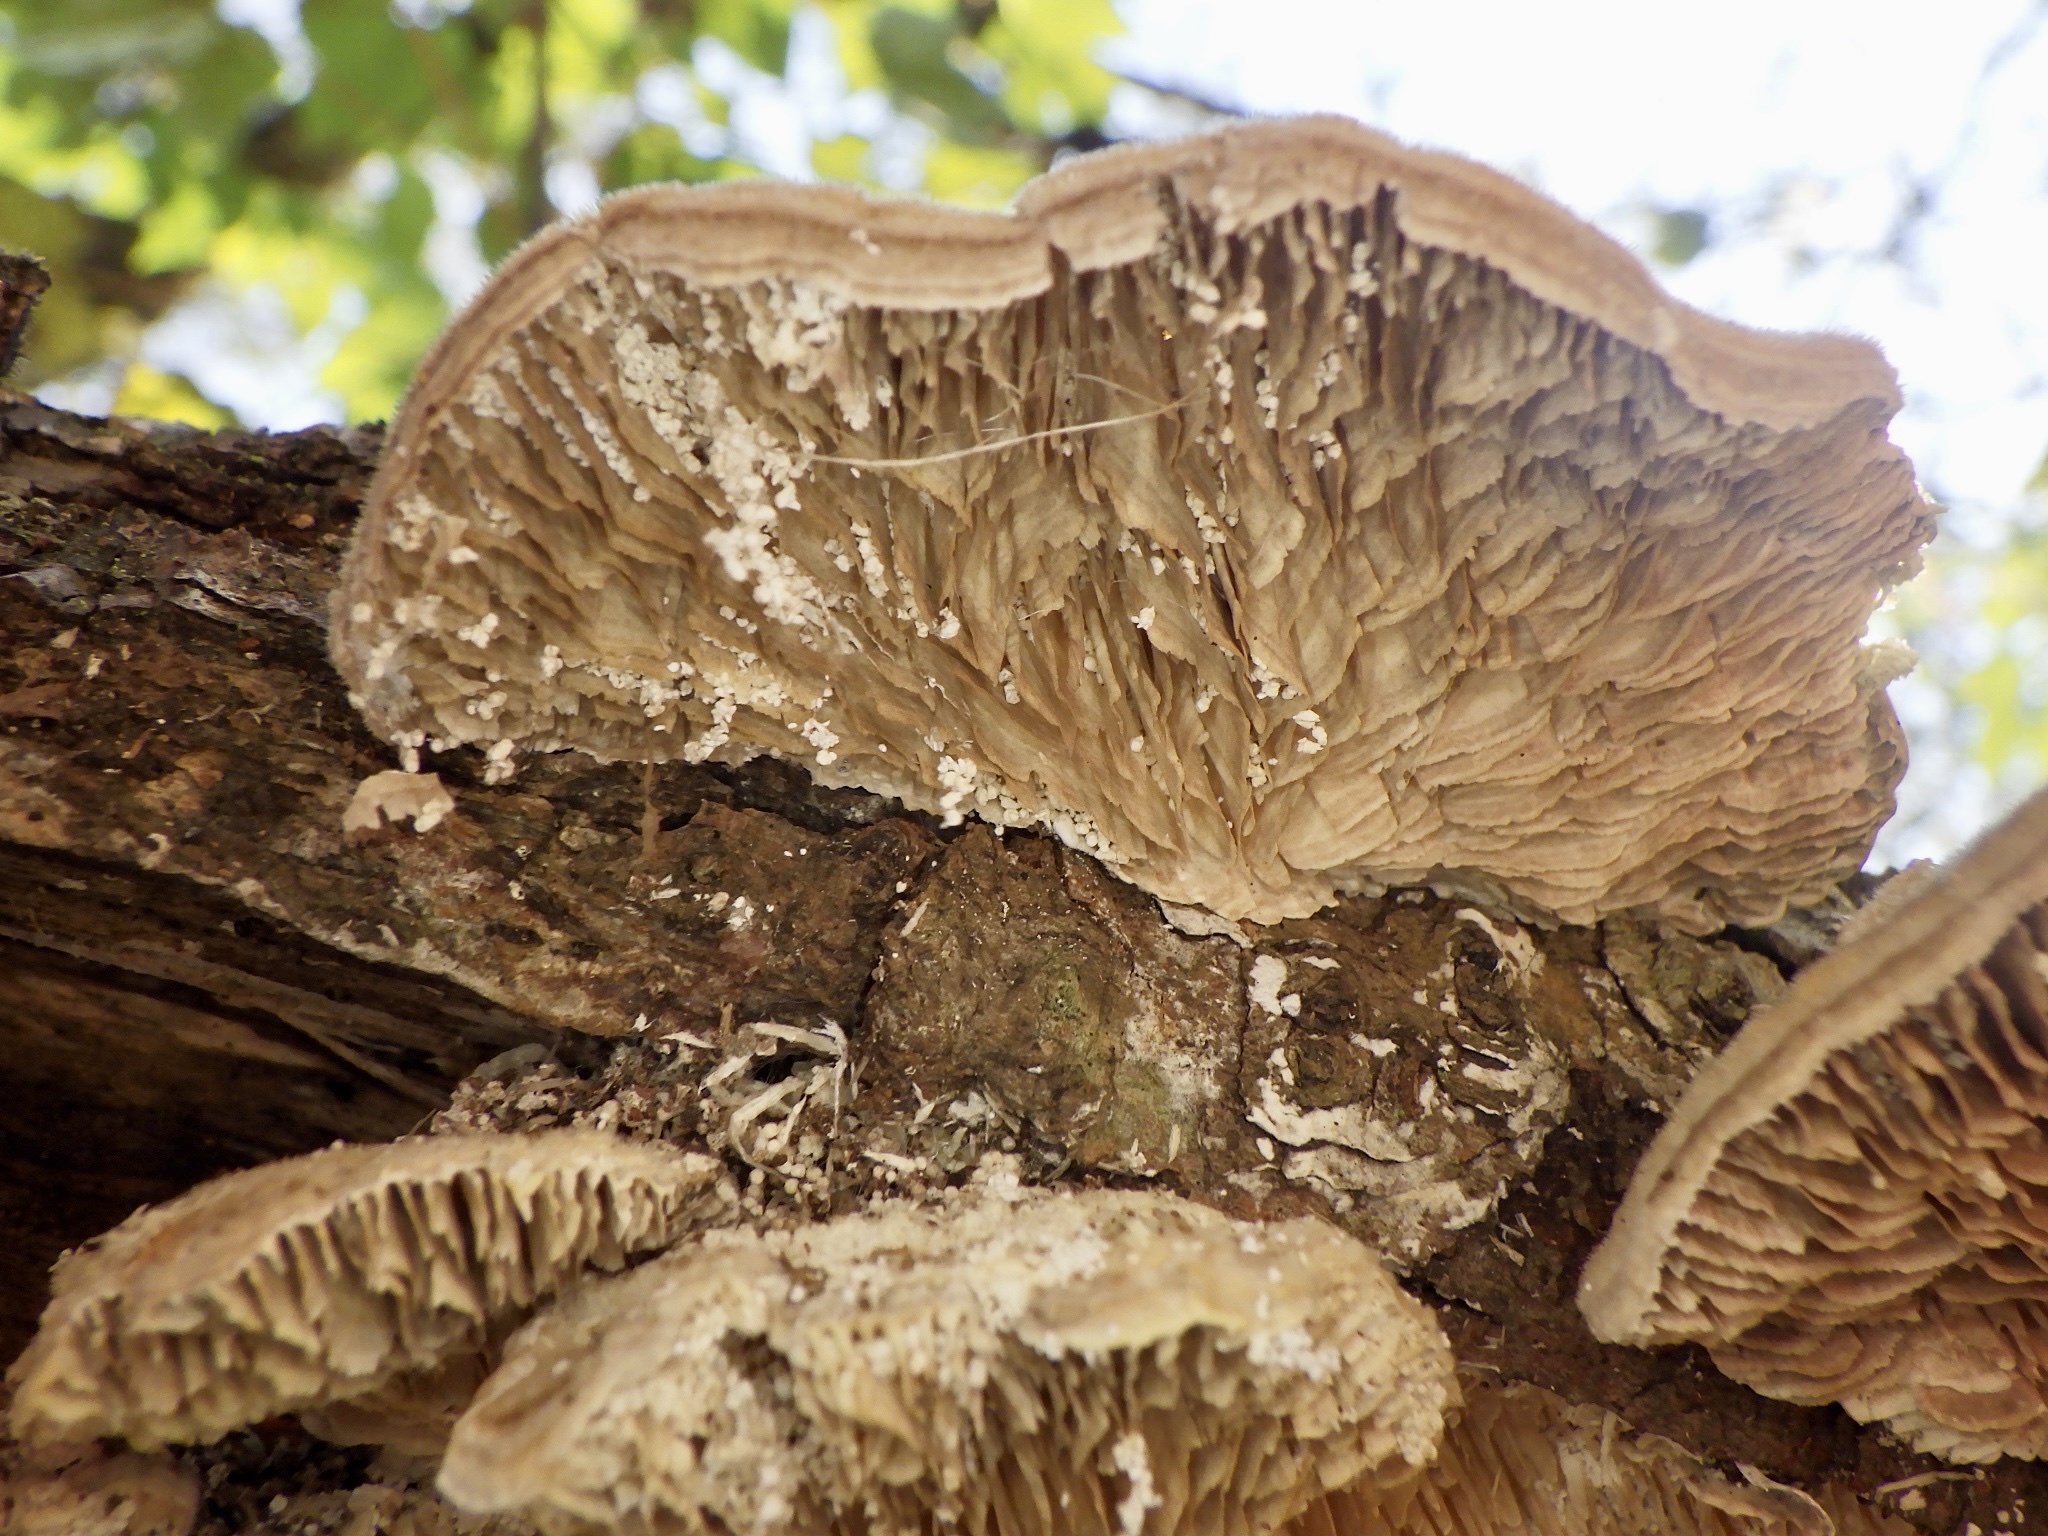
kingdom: Fungi
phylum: Basidiomycota
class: Agaricomycetes
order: Polyporales
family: Polyporaceae
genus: Lenzites
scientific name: Lenzites betulinus
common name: Birch mazegill
